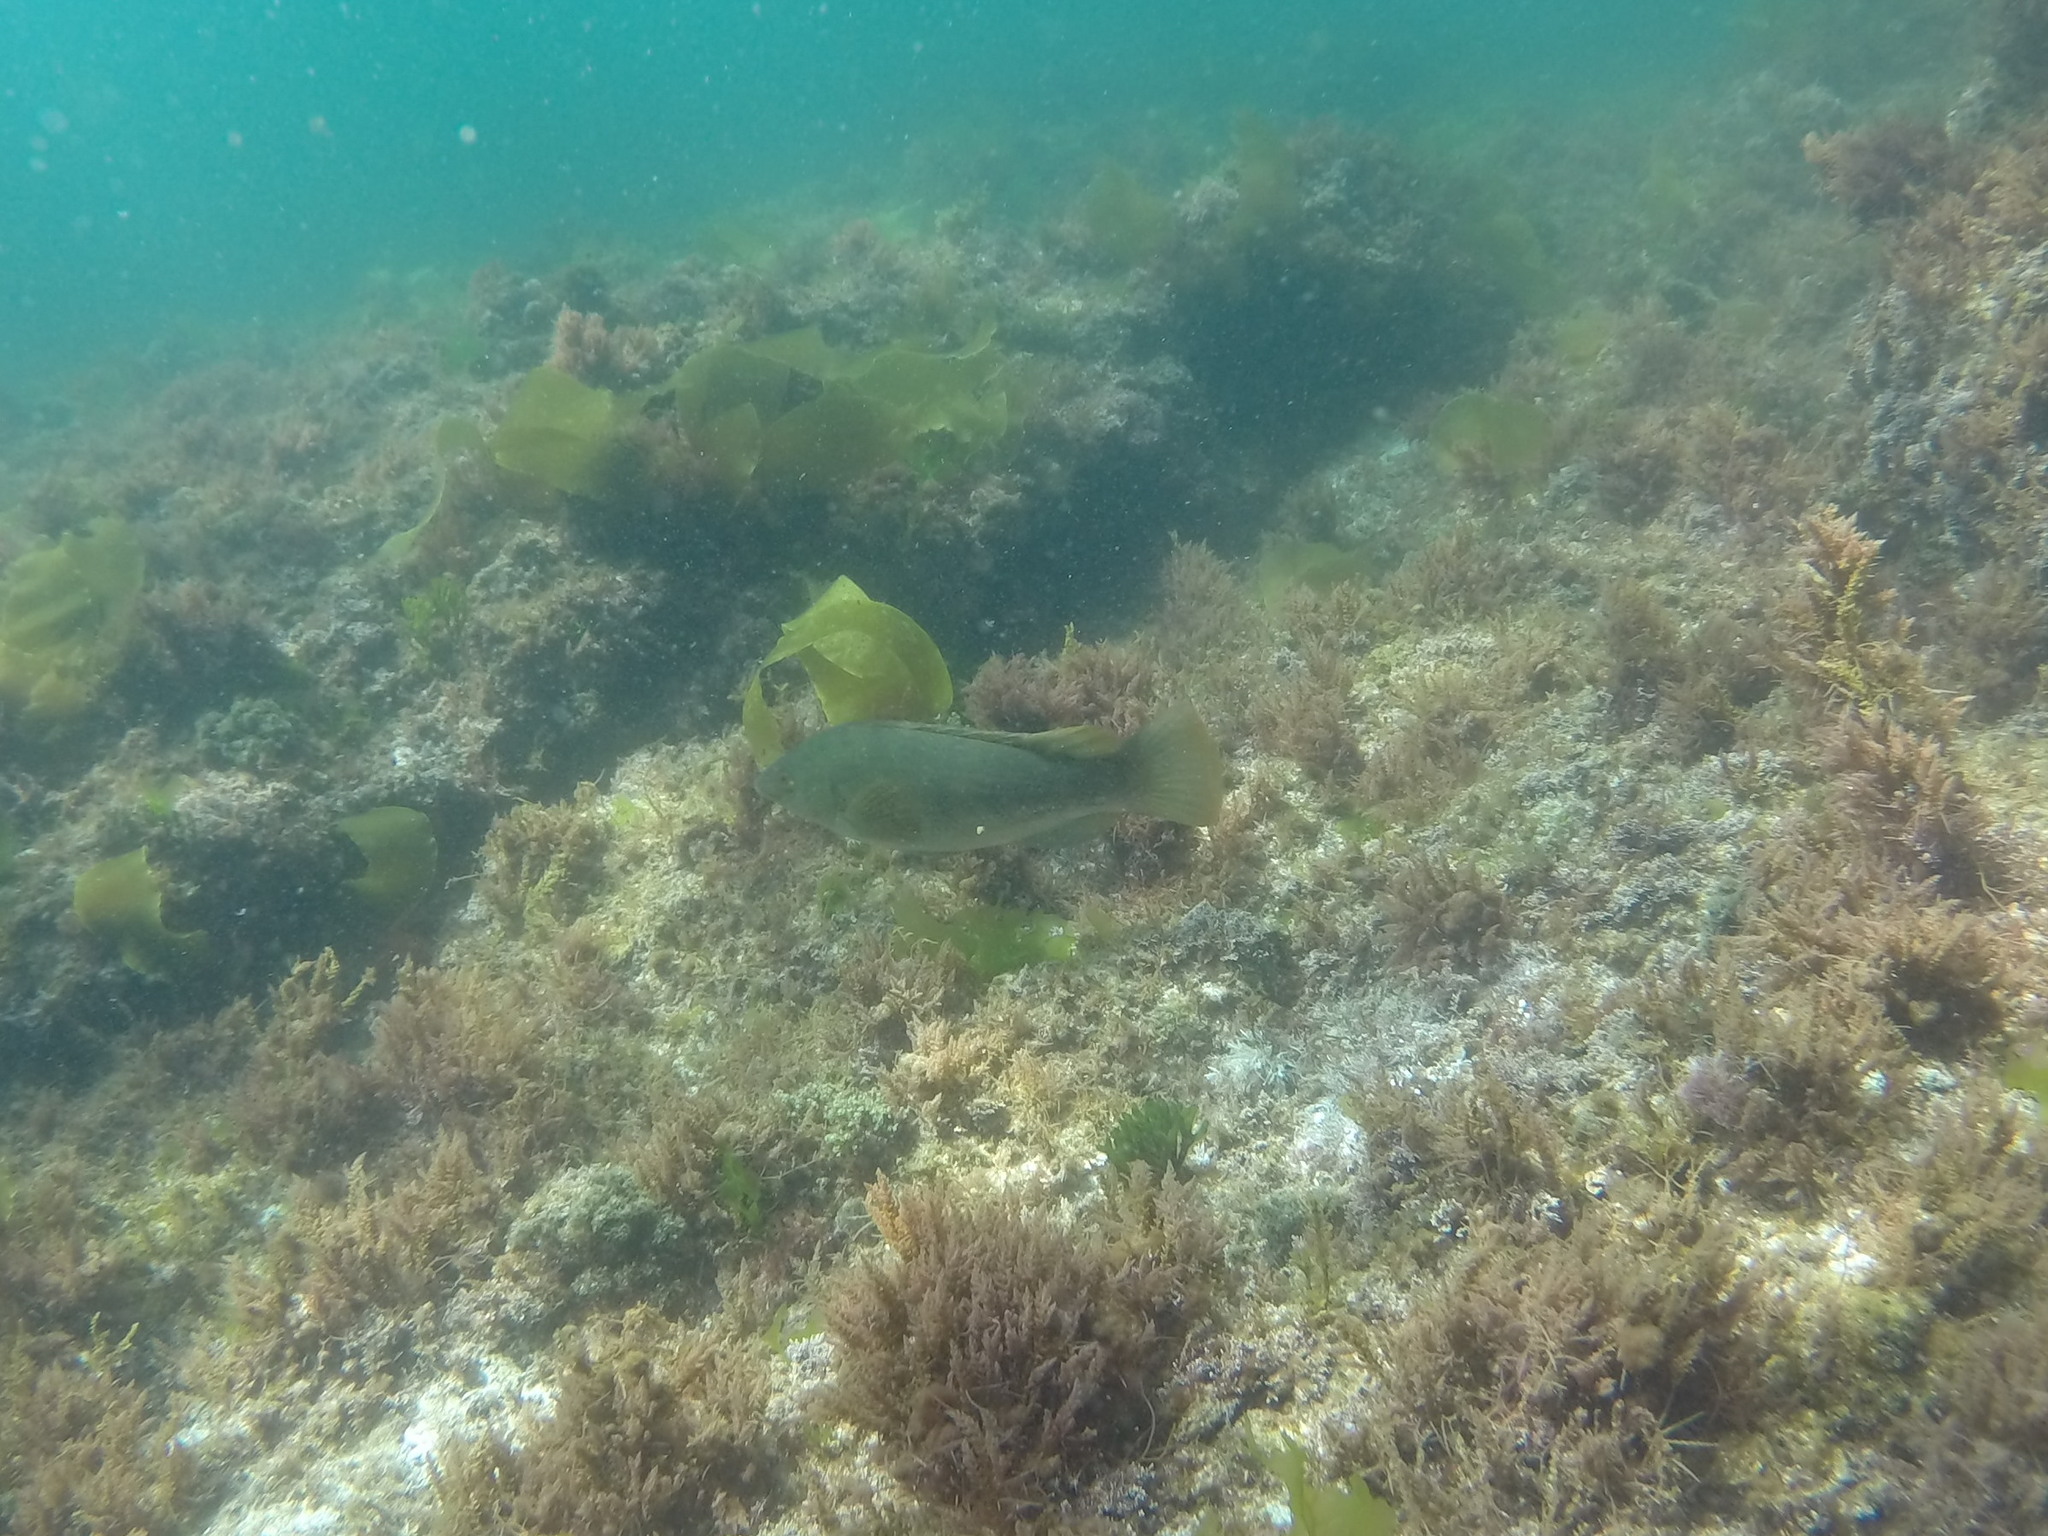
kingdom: Animalia
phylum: Chordata
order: Perciformes
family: Labridae
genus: Labrus
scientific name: Labrus bergylta
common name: Ballan wrasse
